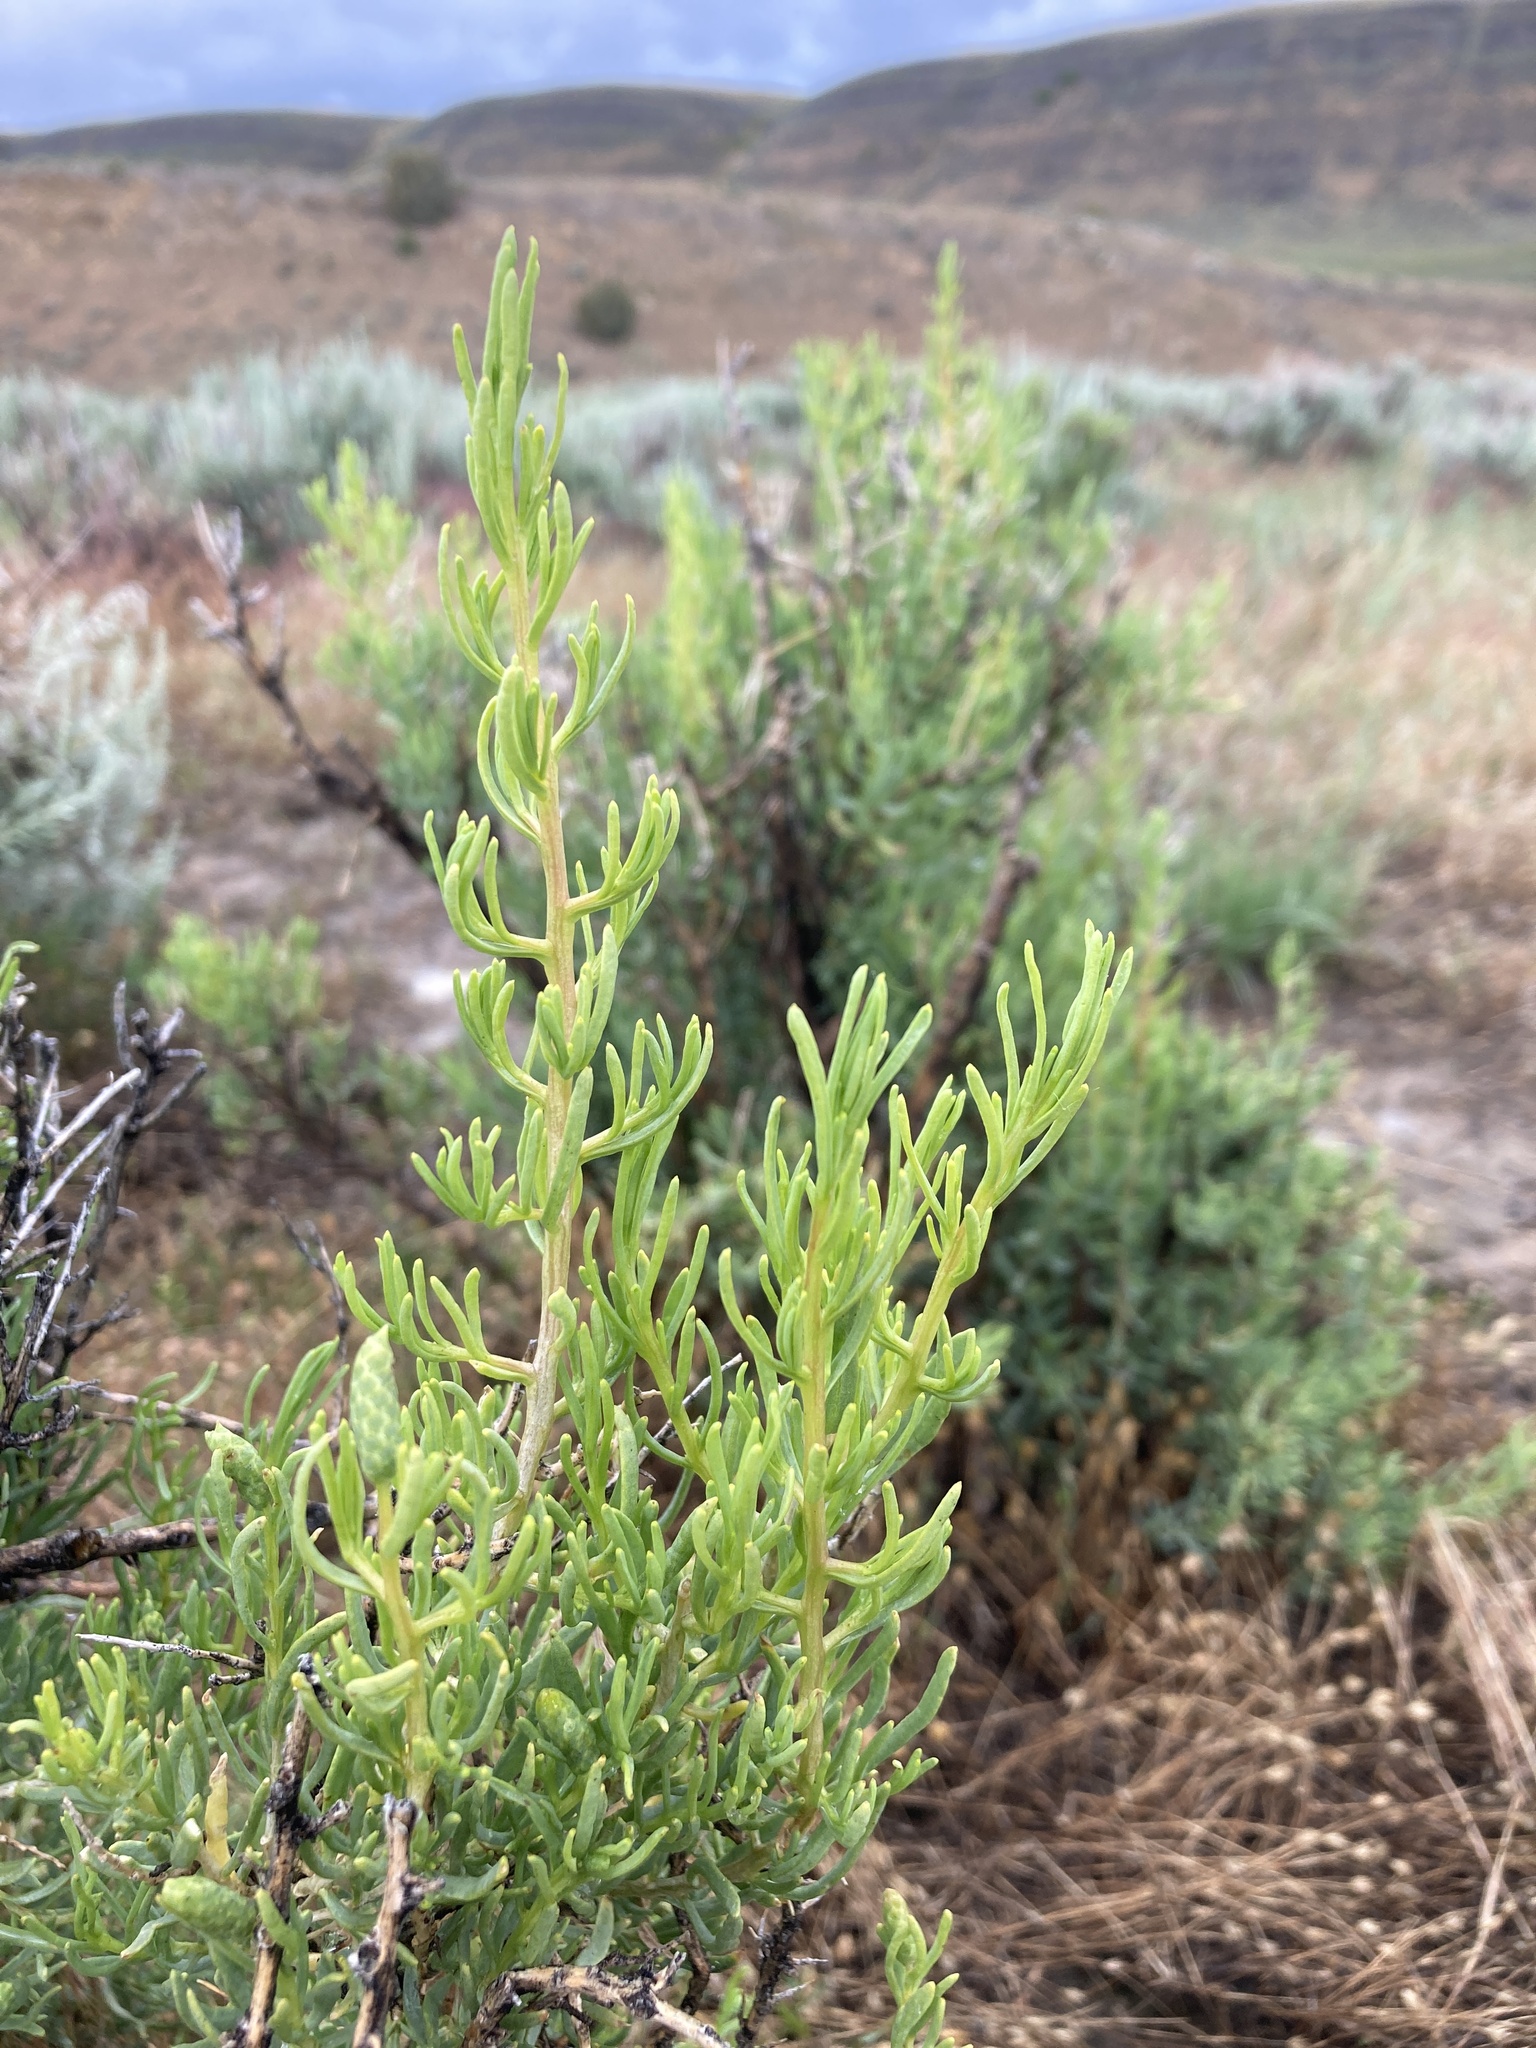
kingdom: Plantae
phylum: Tracheophyta
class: Magnoliopsida
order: Caryophyllales
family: Sarcobataceae
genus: Sarcobatus
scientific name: Sarcobatus vermiculatus
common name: Greasewood
